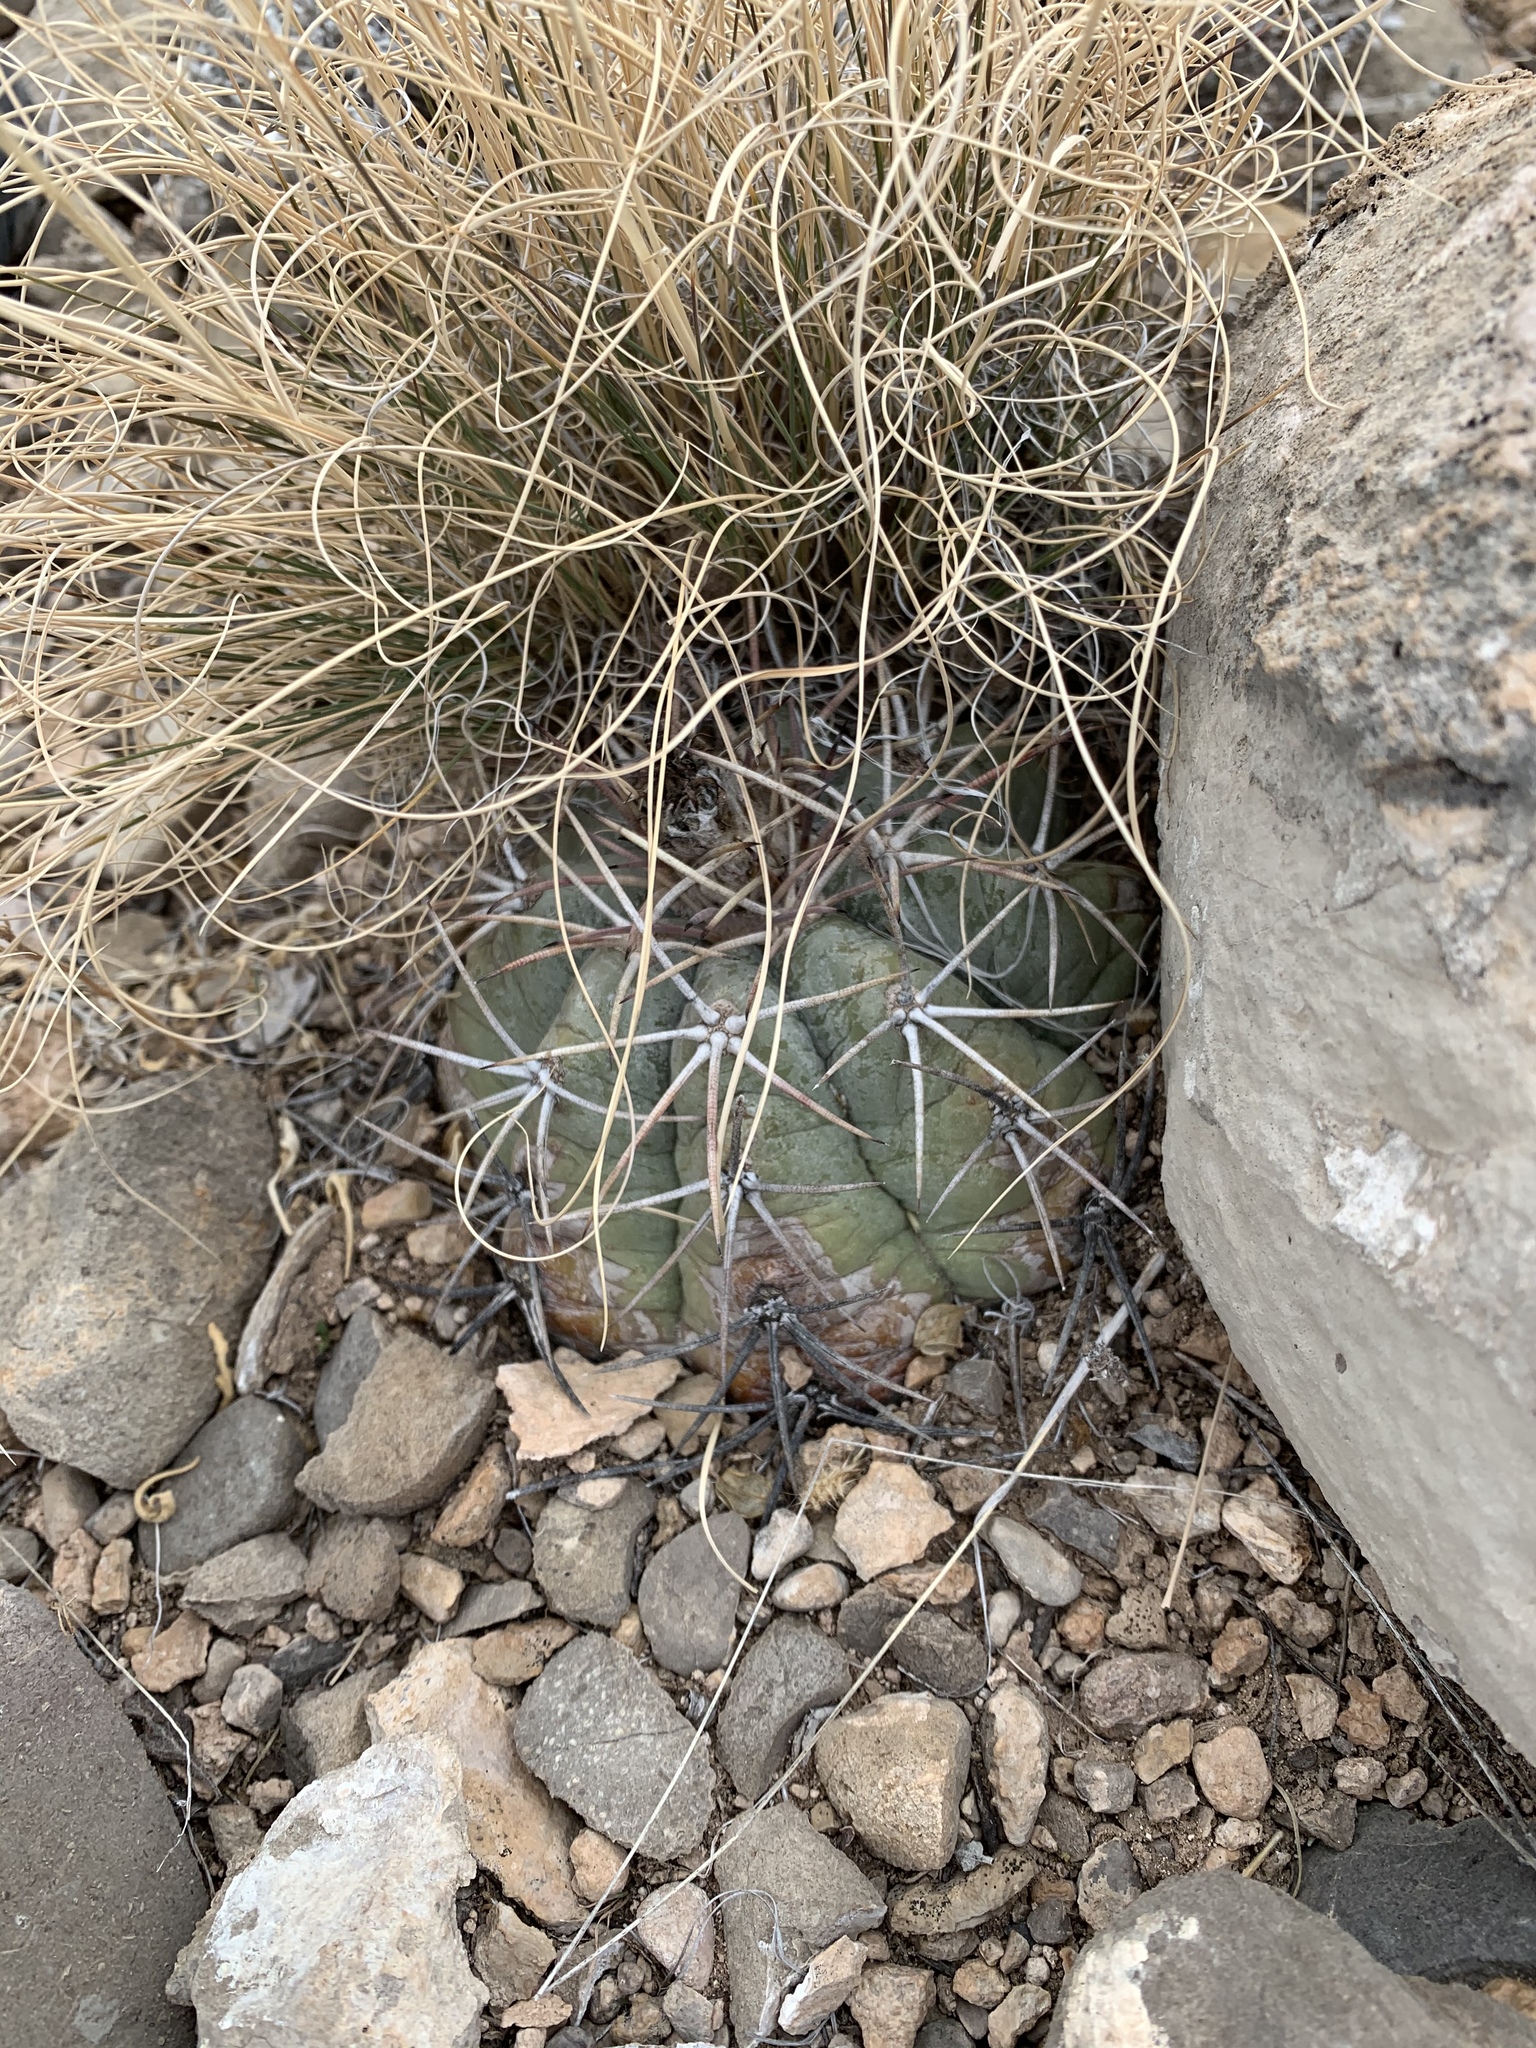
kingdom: Plantae
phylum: Tracheophyta
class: Magnoliopsida
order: Caryophyllales
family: Cactaceae
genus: Echinocactus
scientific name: Echinocactus horizonthalonius
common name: Devilshead
